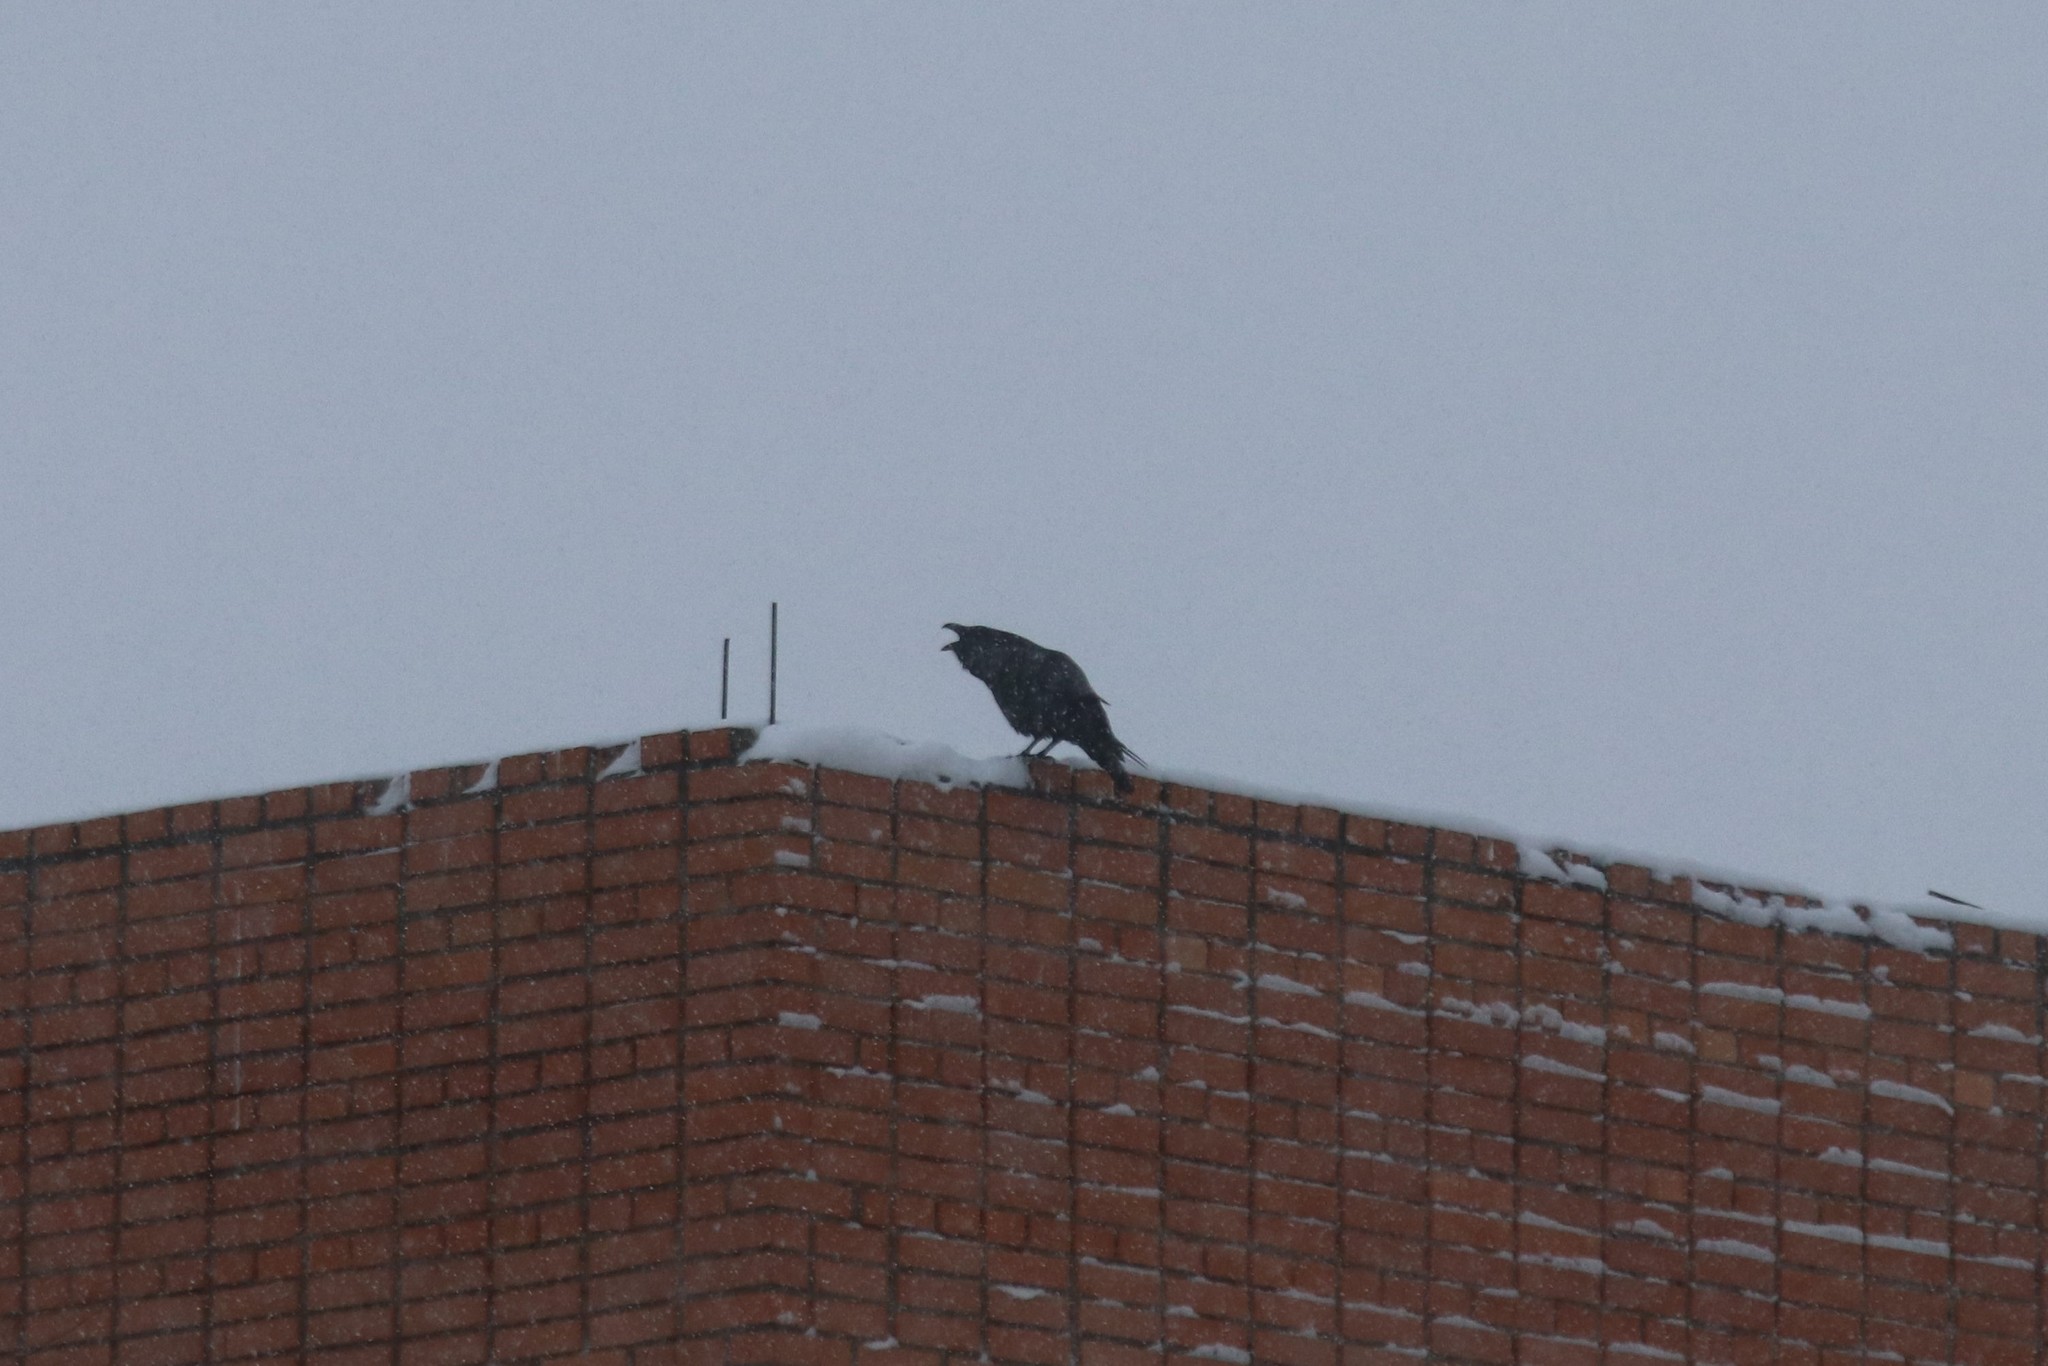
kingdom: Animalia
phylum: Chordata
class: Aves
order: Passeriformes
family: Corvidae
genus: Corvus
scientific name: Corvus corax
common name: Common raven
